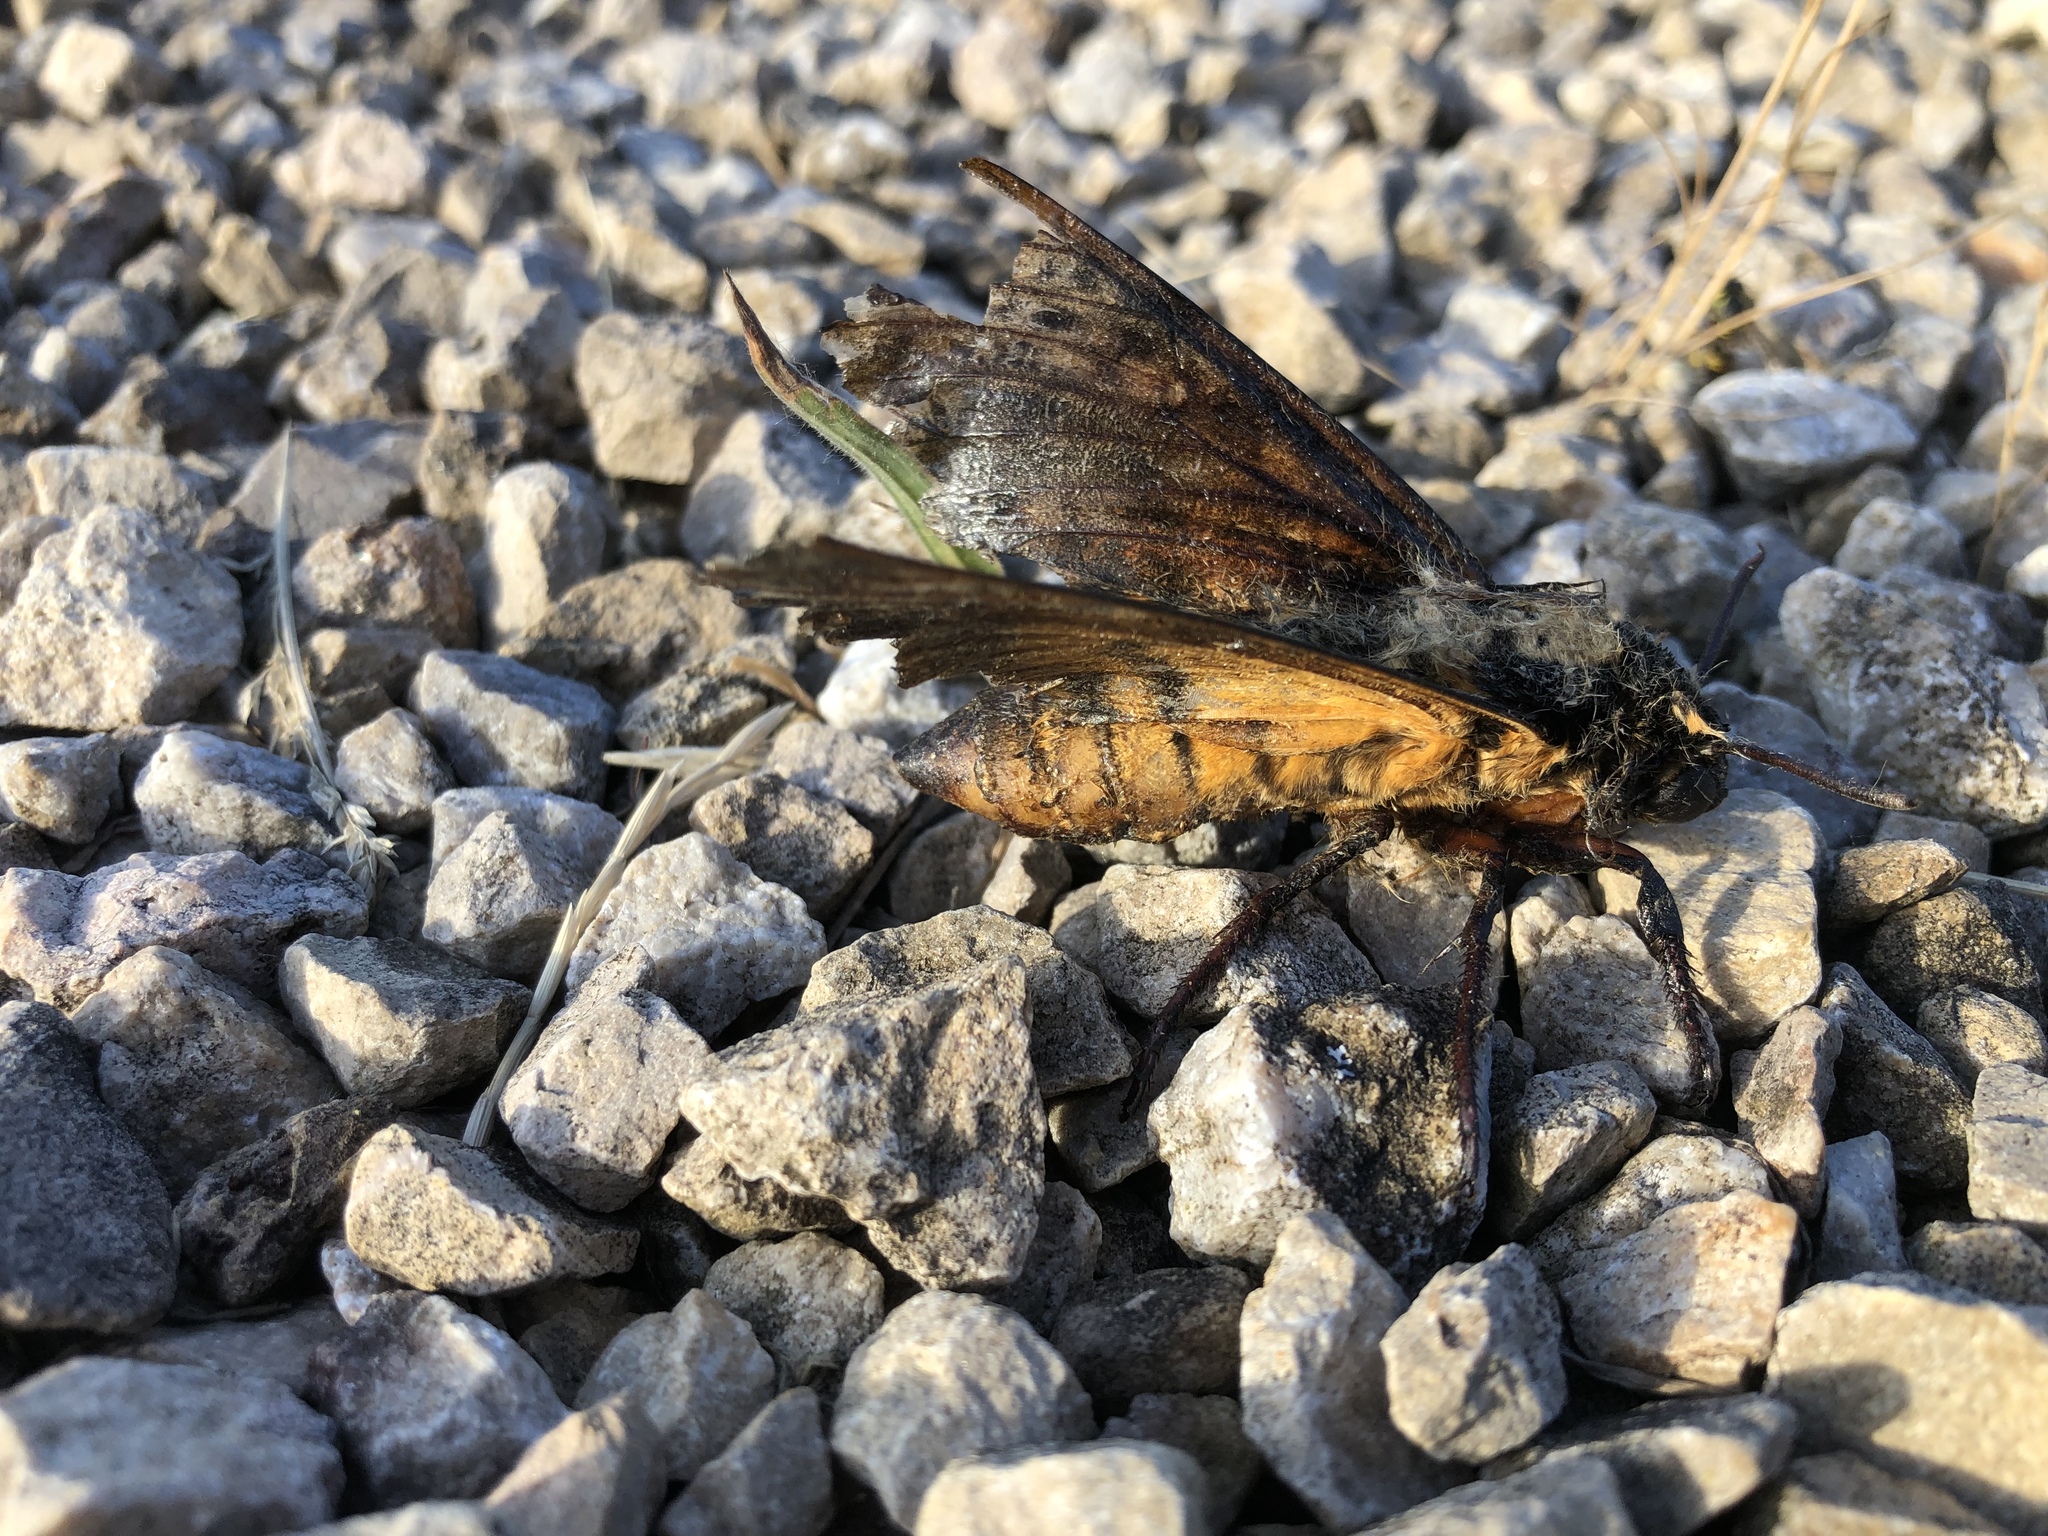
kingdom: Animalia
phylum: Arthropoda
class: Insecta
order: Lepidoptera
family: Sphingidae
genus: Acherontia
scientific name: Acherontia atropos
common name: Death's-head hawk moth
